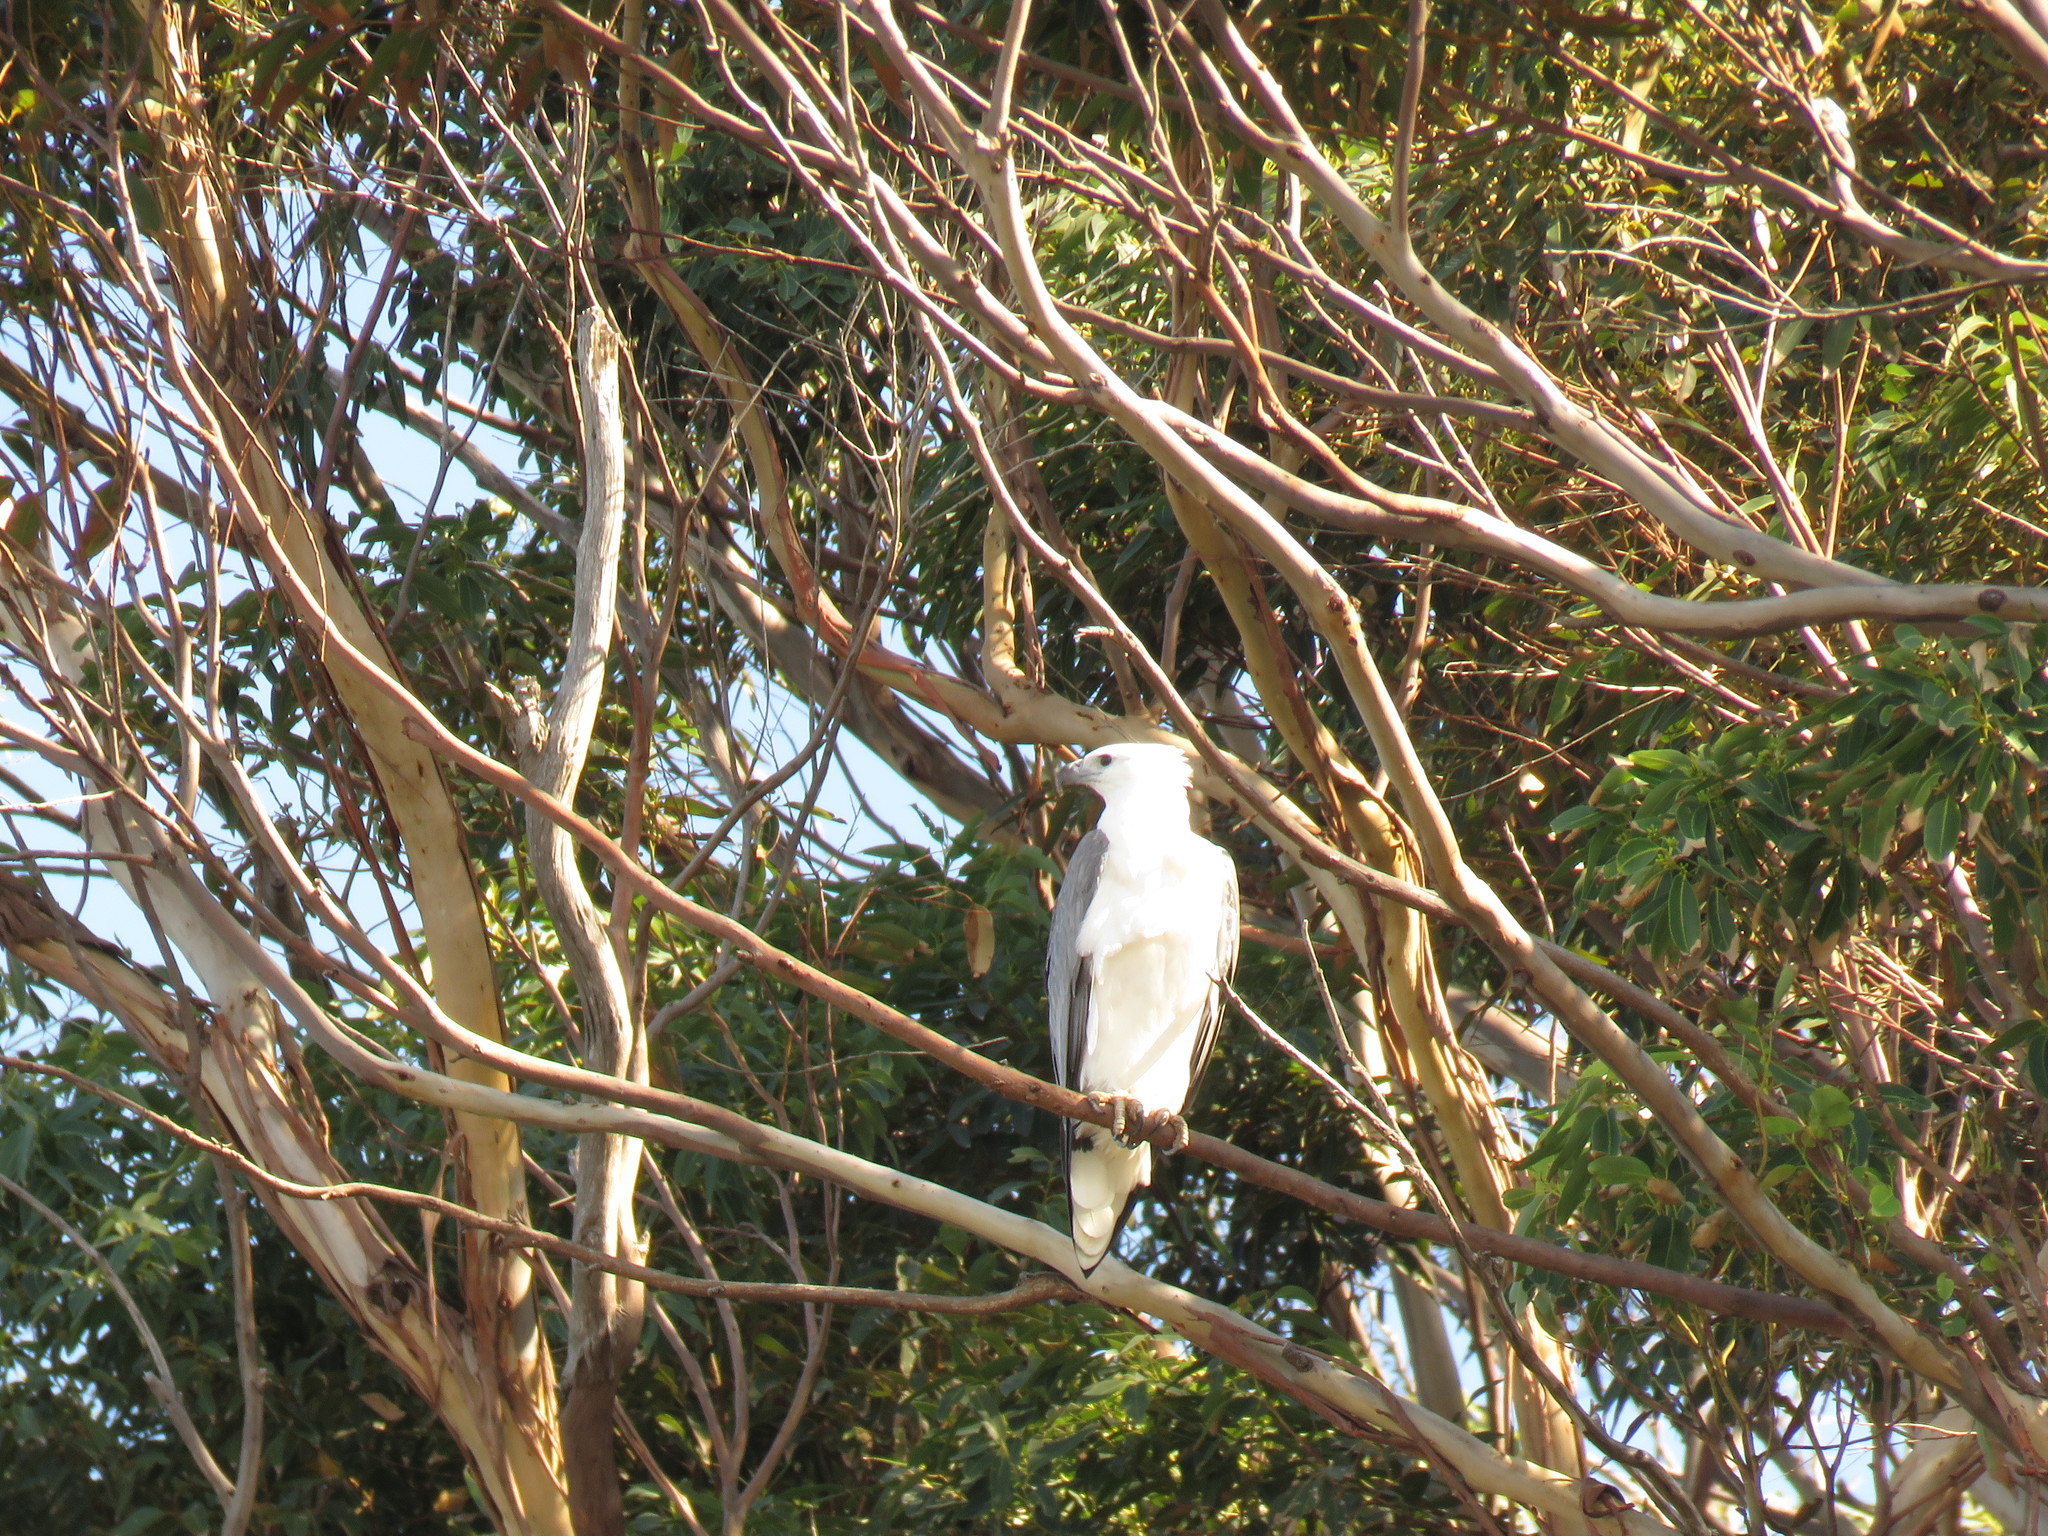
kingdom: Animalia
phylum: Chordata
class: Aves
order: Accipitriformes
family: Accipitridae
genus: Haliaeetus
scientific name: Haliaeetus leucogaster
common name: White-bellied sea eagle
